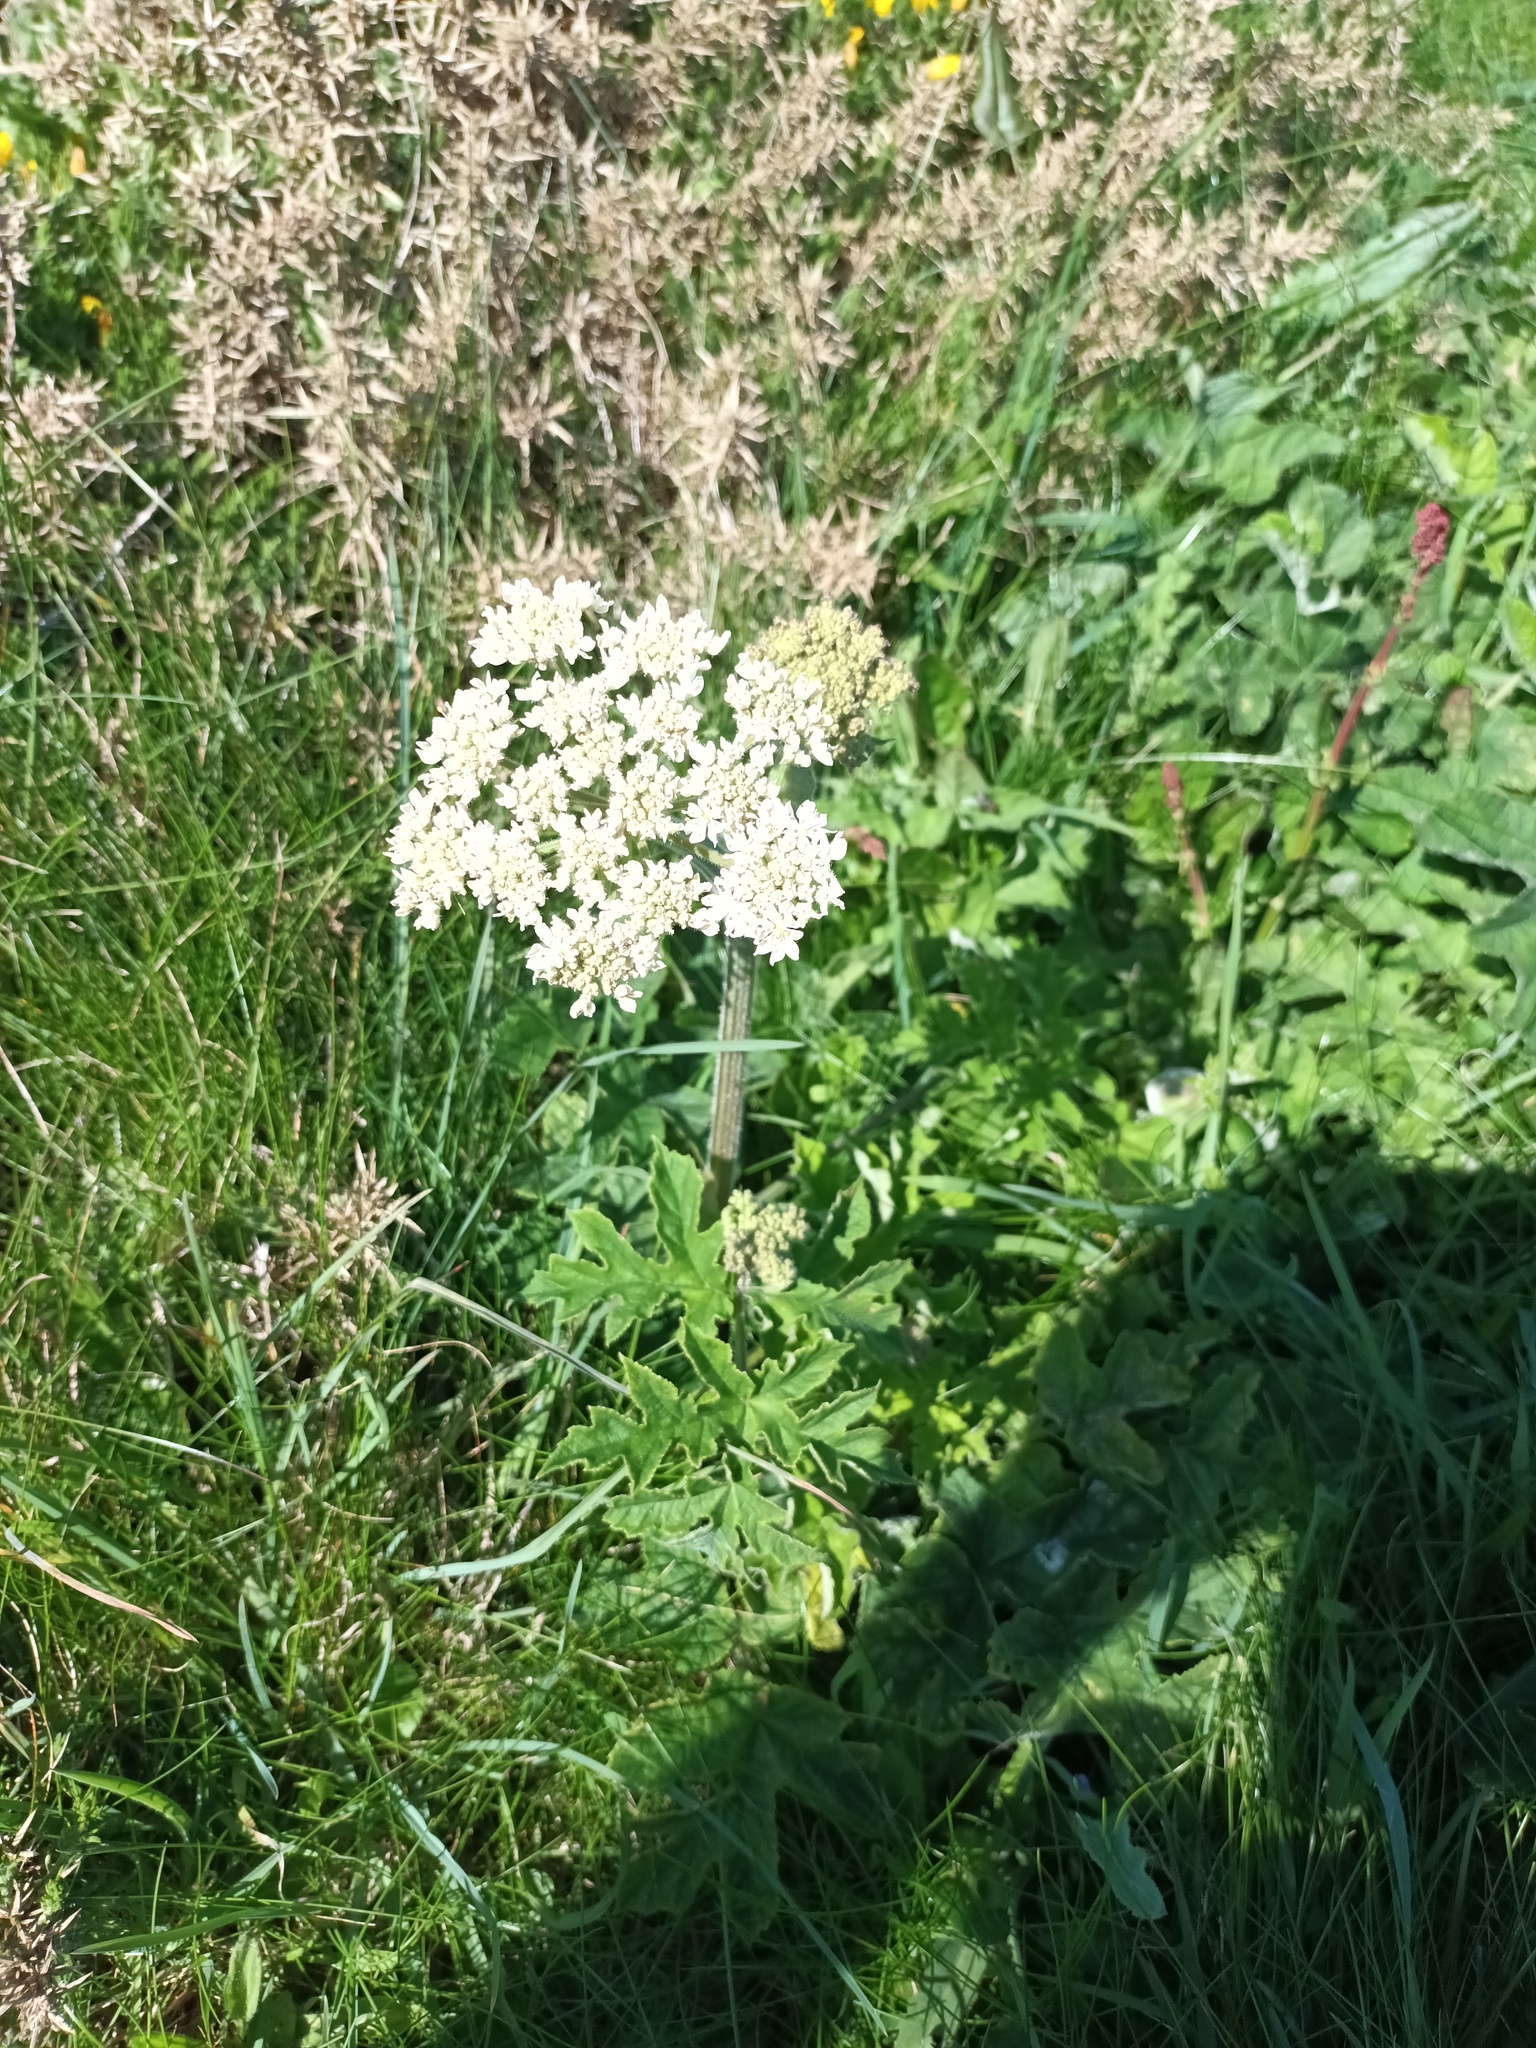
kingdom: Plantae
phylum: Tracheophyta
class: Magnoliopsida
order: Apiales
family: Apiaceae
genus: Heracleum
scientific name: Heracleum sphondylium
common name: Hogweed
